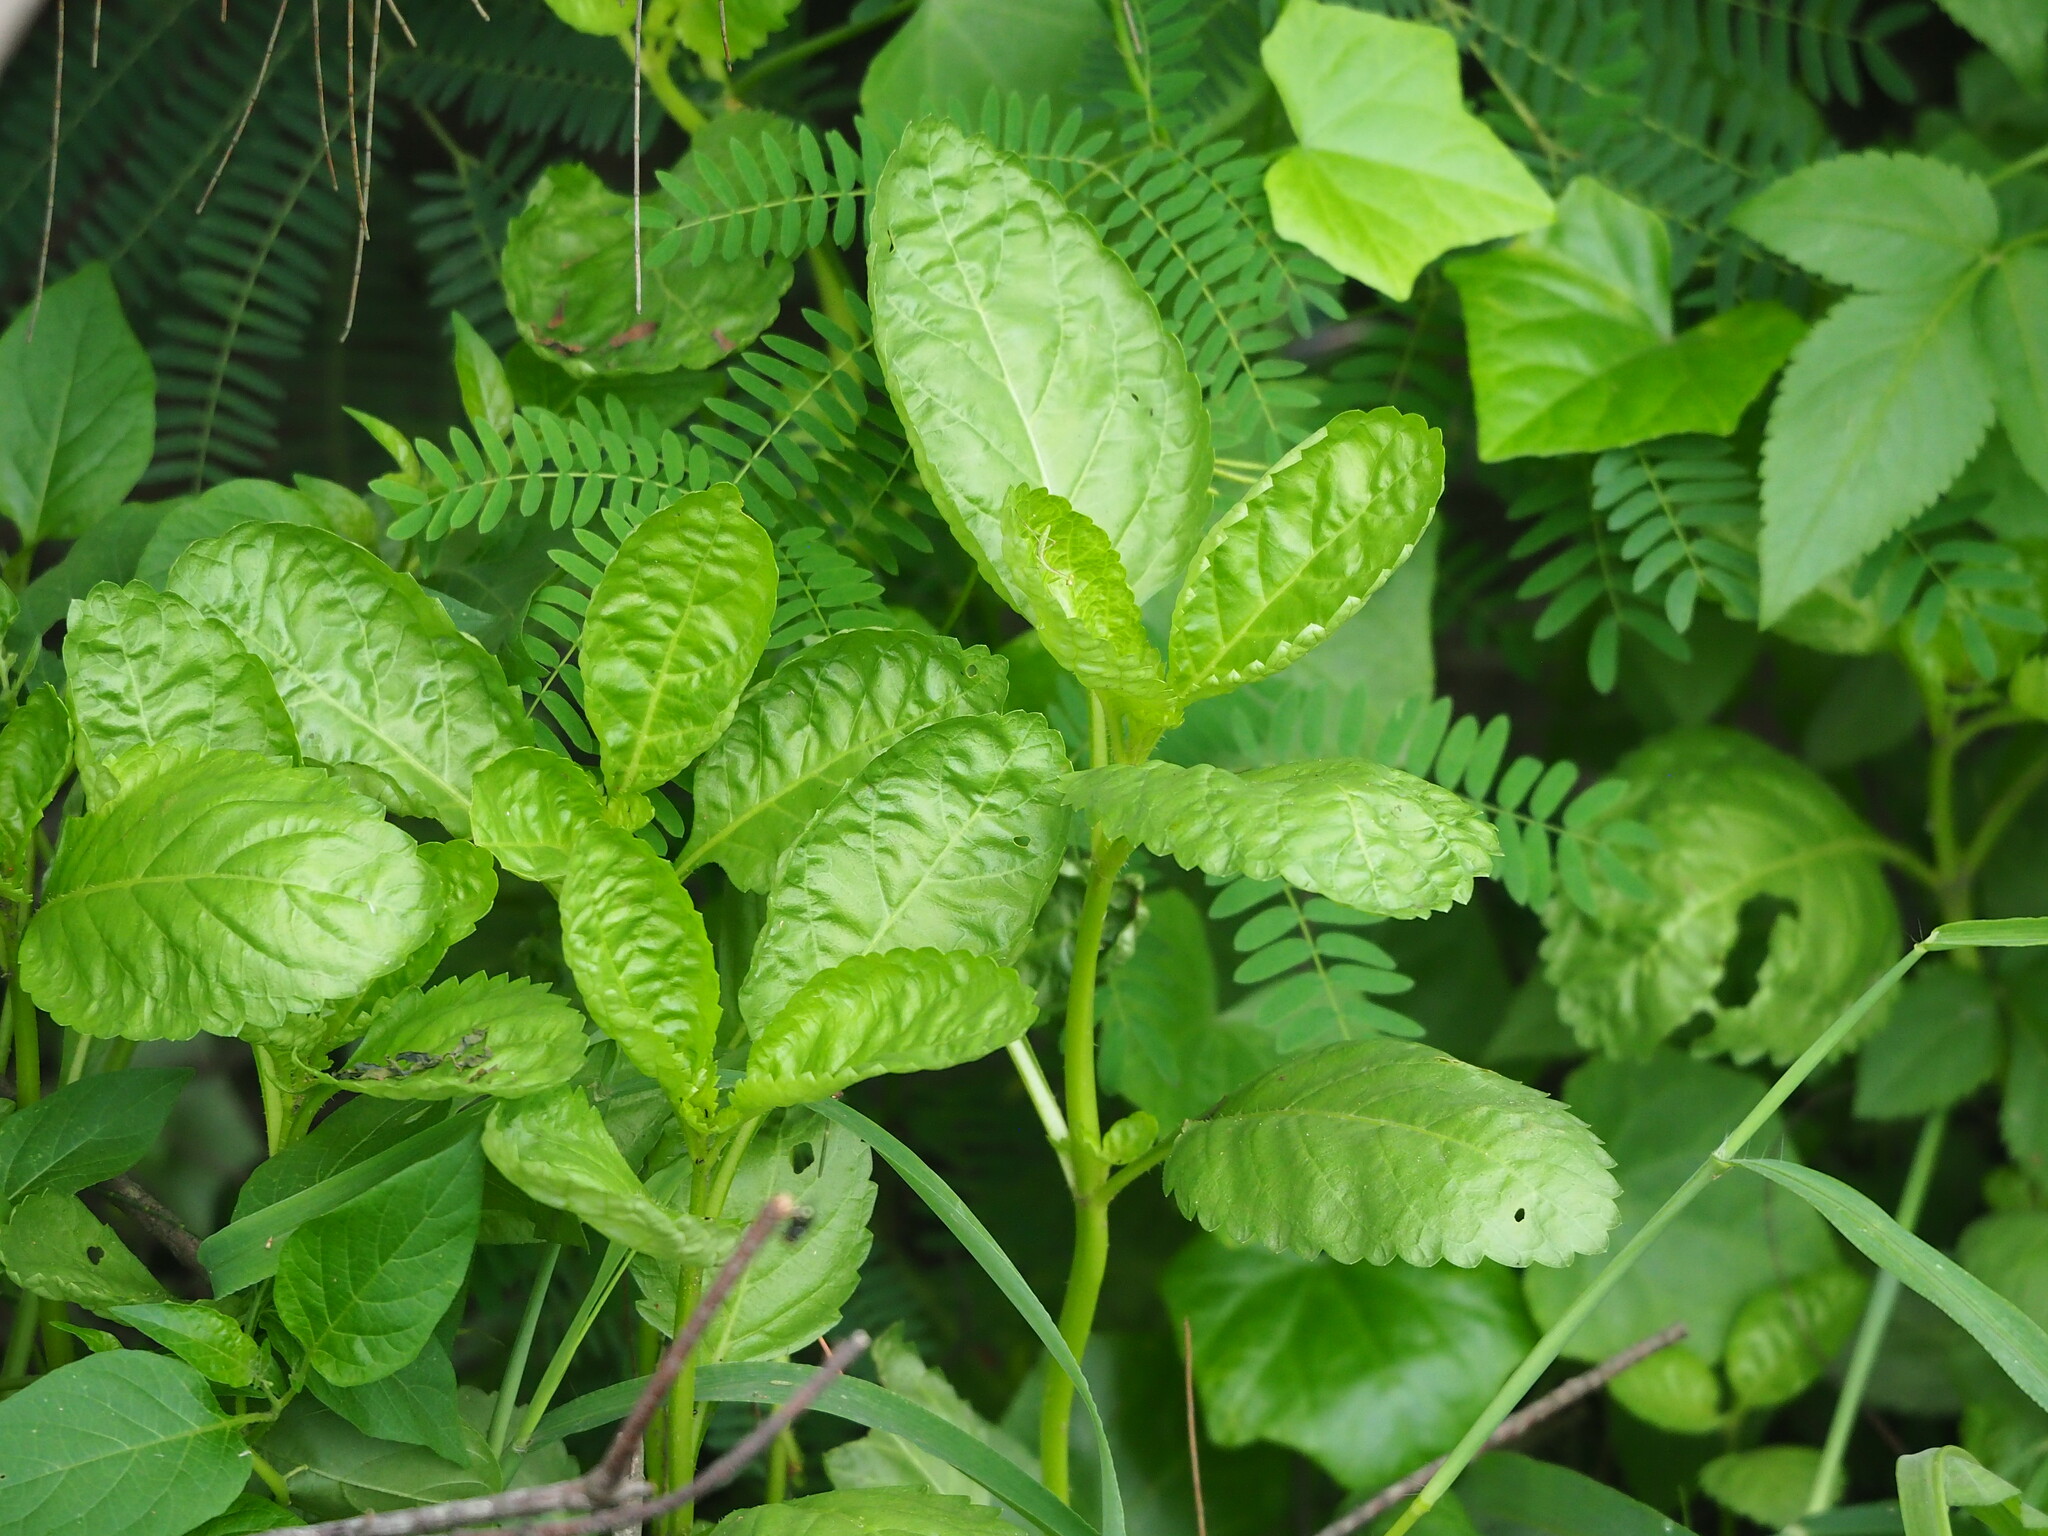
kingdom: Plantae
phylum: Tracheophyta
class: Magnoliopsida
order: Lamiales
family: Verbenaceae
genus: Stachytarpheta
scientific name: Stachytarpheta jamaicensis
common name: Light-blue snakeweed
